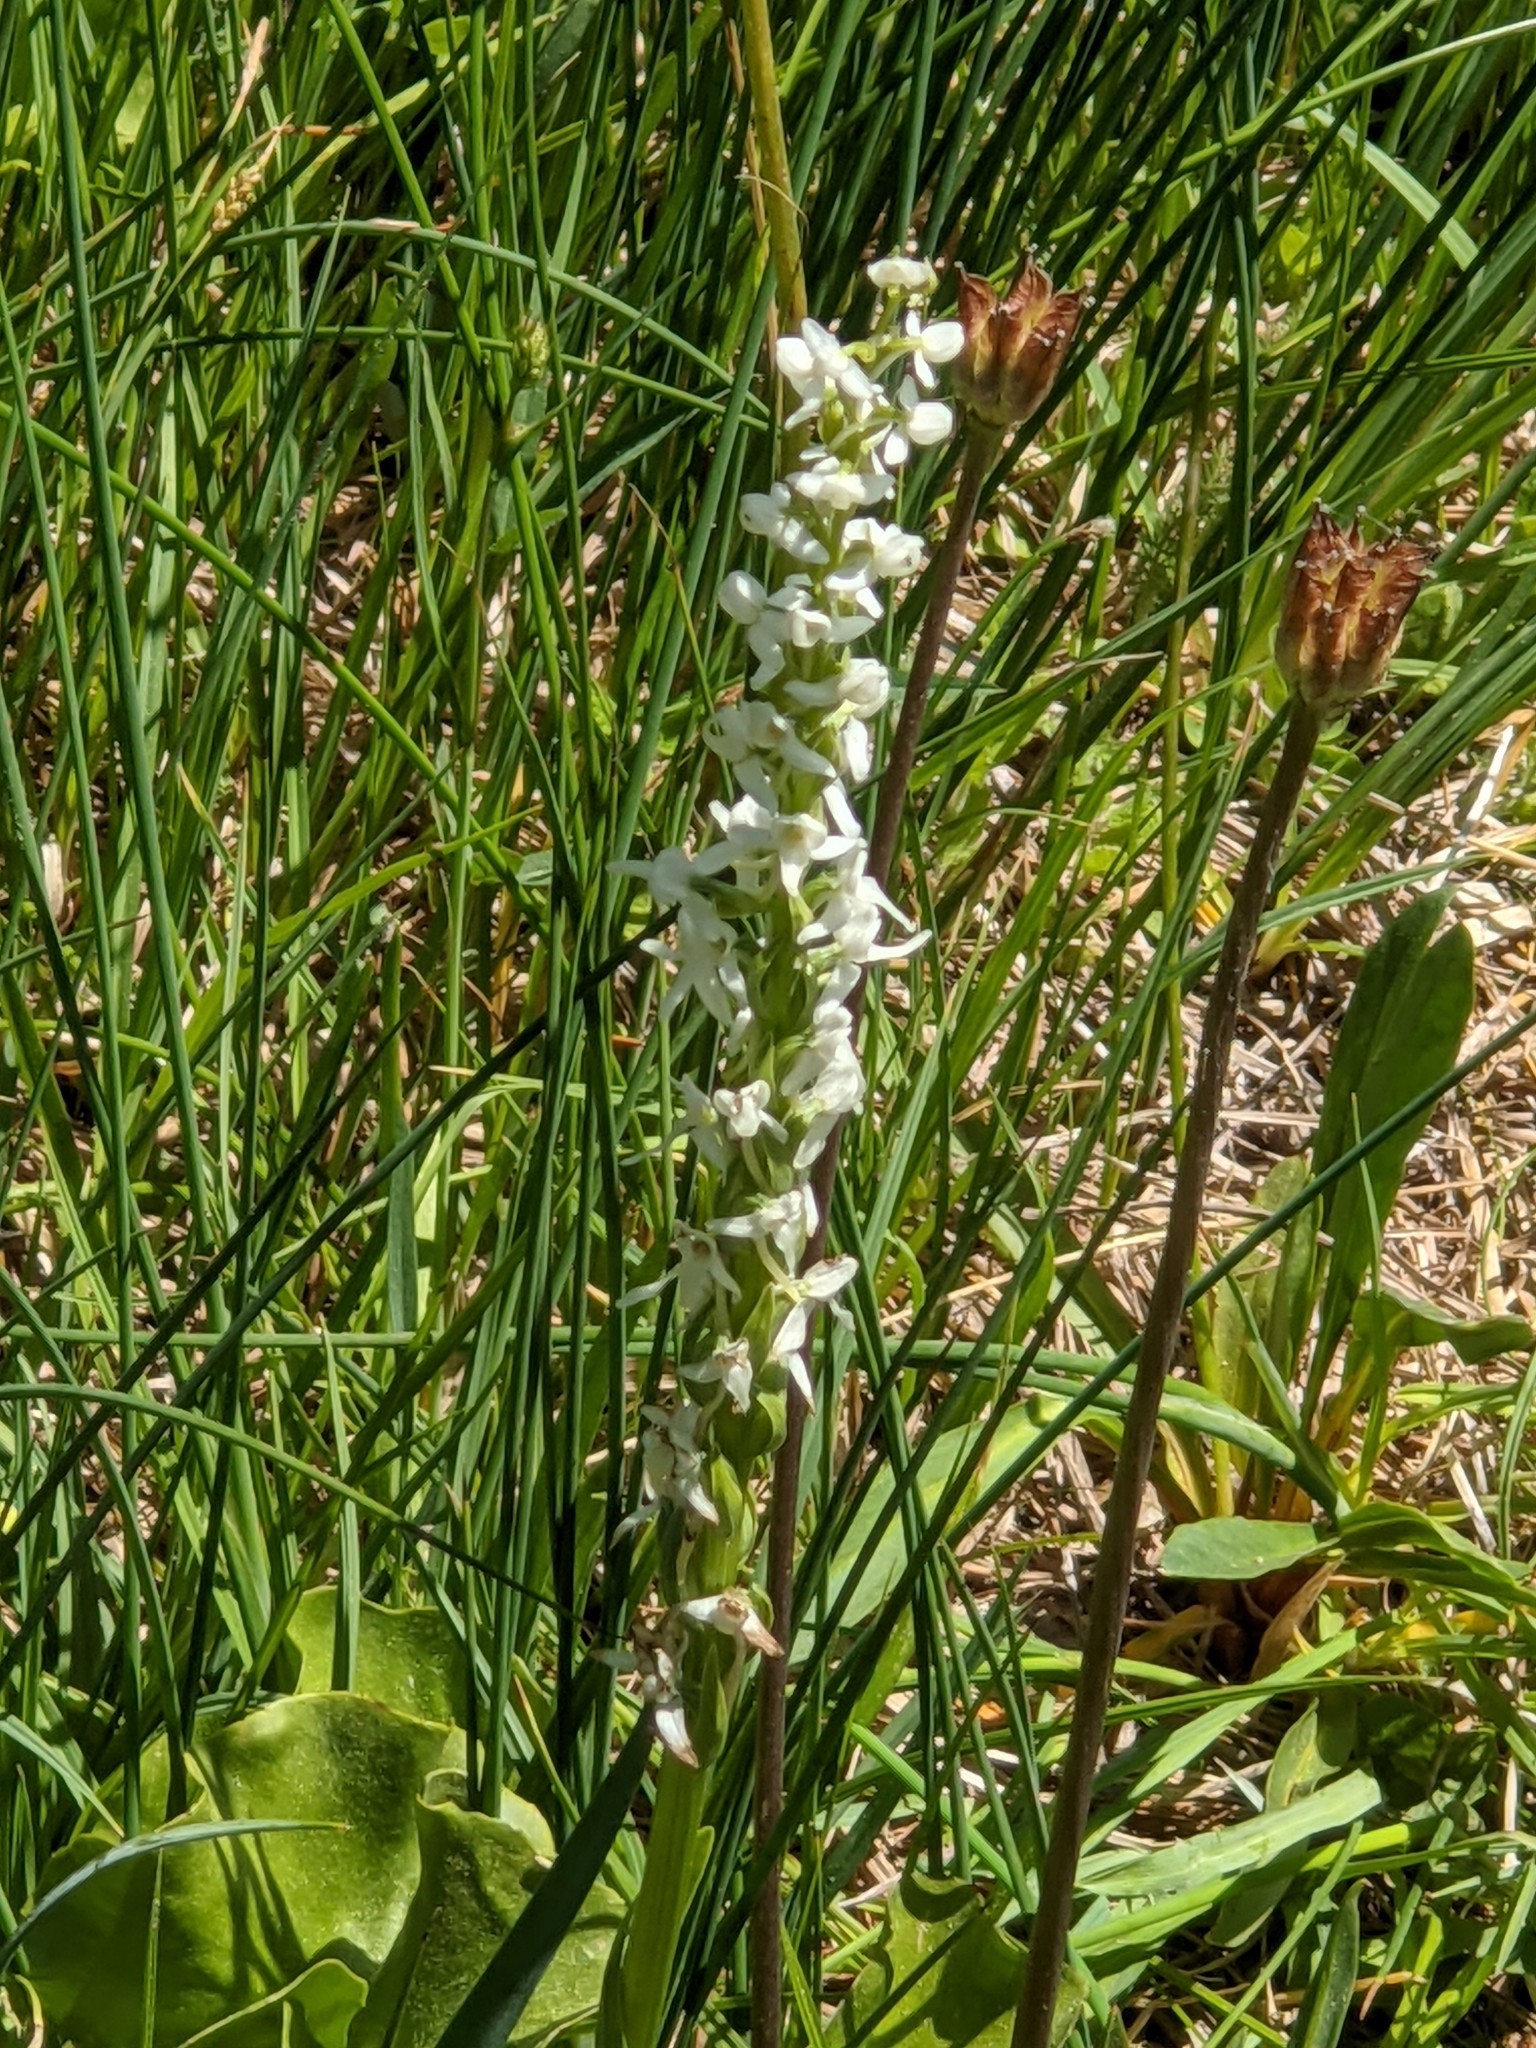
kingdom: Plantae
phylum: Tracheophyta
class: Liliopsida
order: Asparagales
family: Orchidaceae
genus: Platanthera
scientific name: Platanthera dilatata
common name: Bog candles
